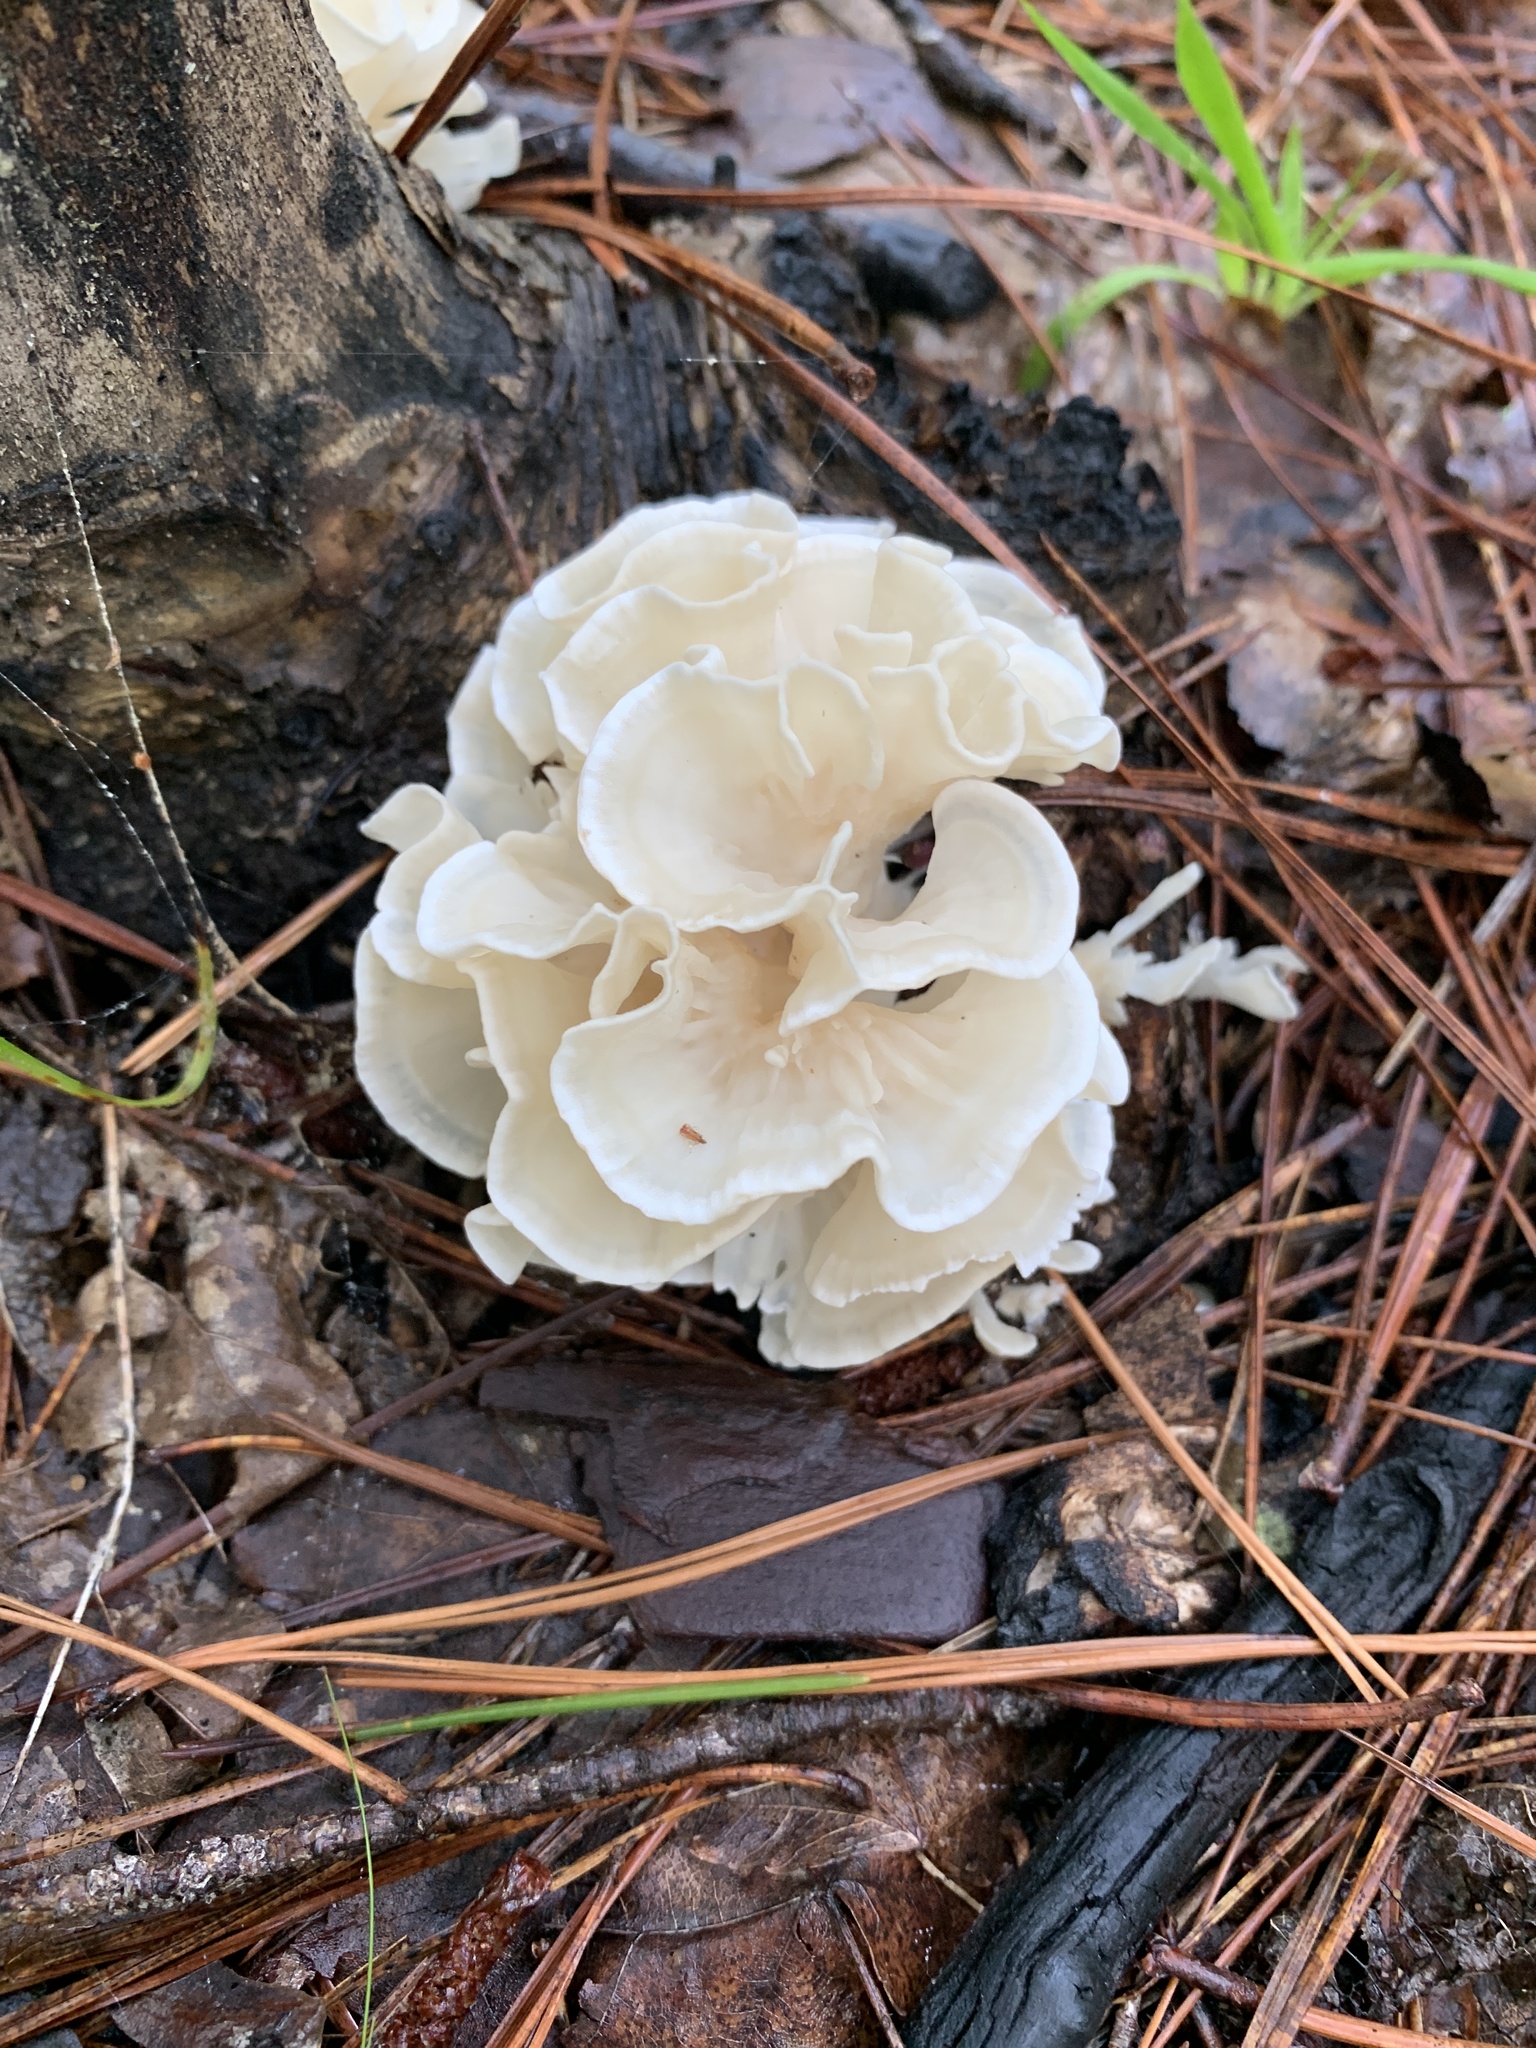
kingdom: Fungi
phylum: Basidiomycota
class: Agaricomycetes
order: Polyporales
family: Sparassidaceae
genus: Sparassis
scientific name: Sparassis spathulata
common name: Eastern cauliflower mushroom
